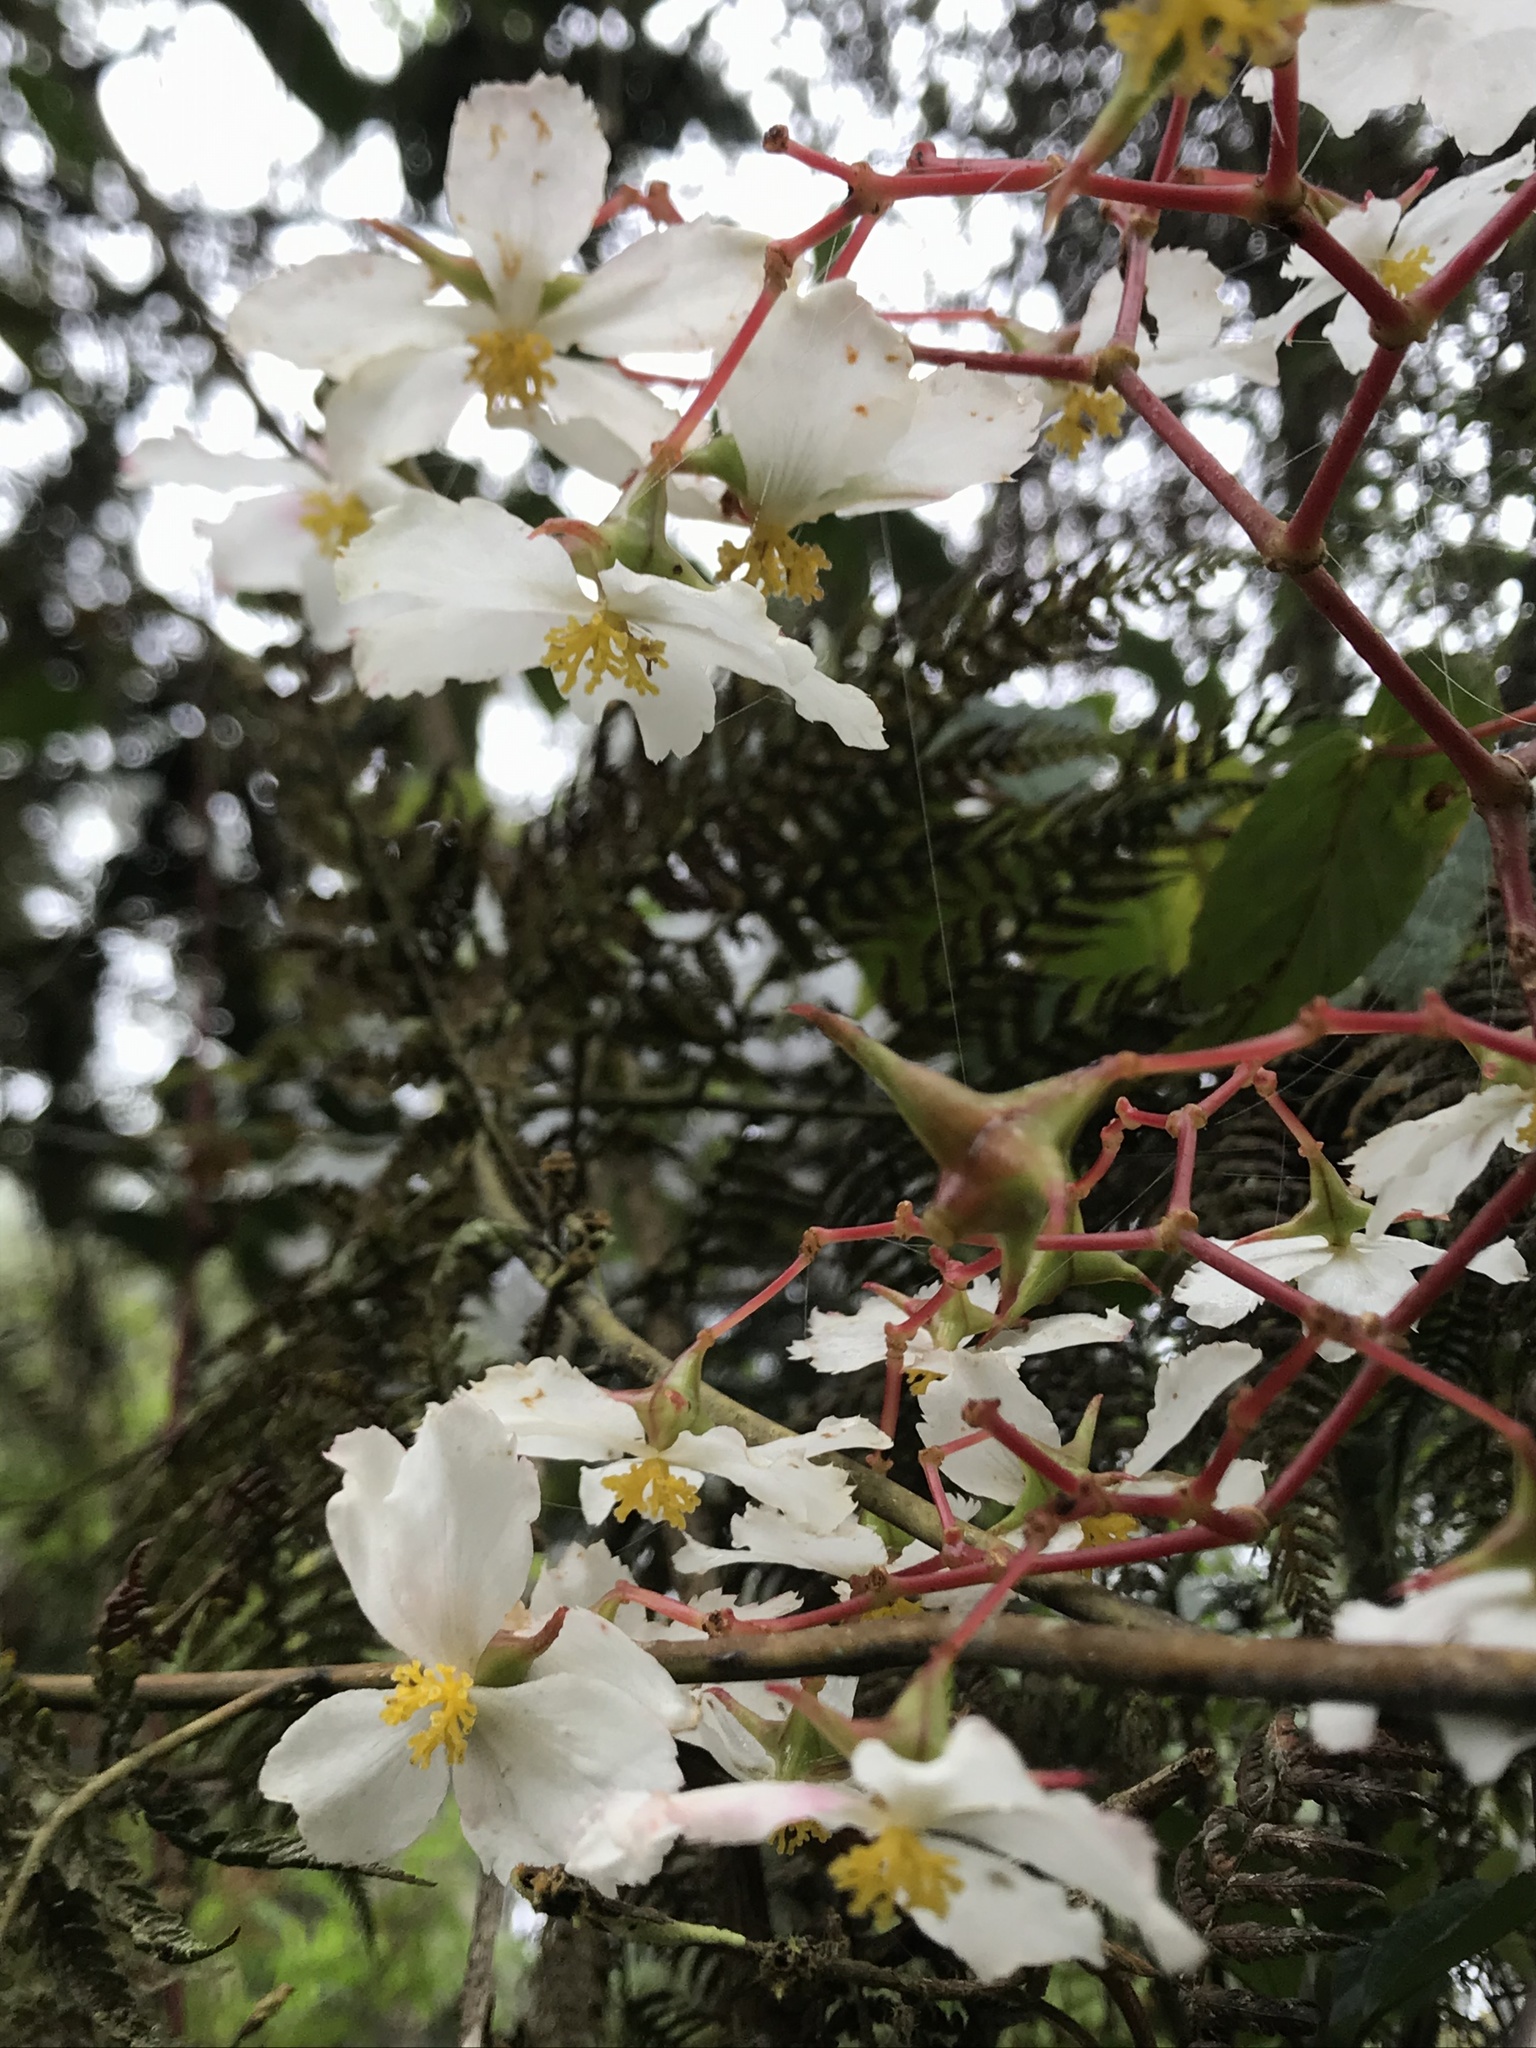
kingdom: Plantae
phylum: Tracheophyta
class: Magnoliopsida
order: Cucurbitales
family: Begoniaceae
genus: Begonia
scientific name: Begonia cornuta
